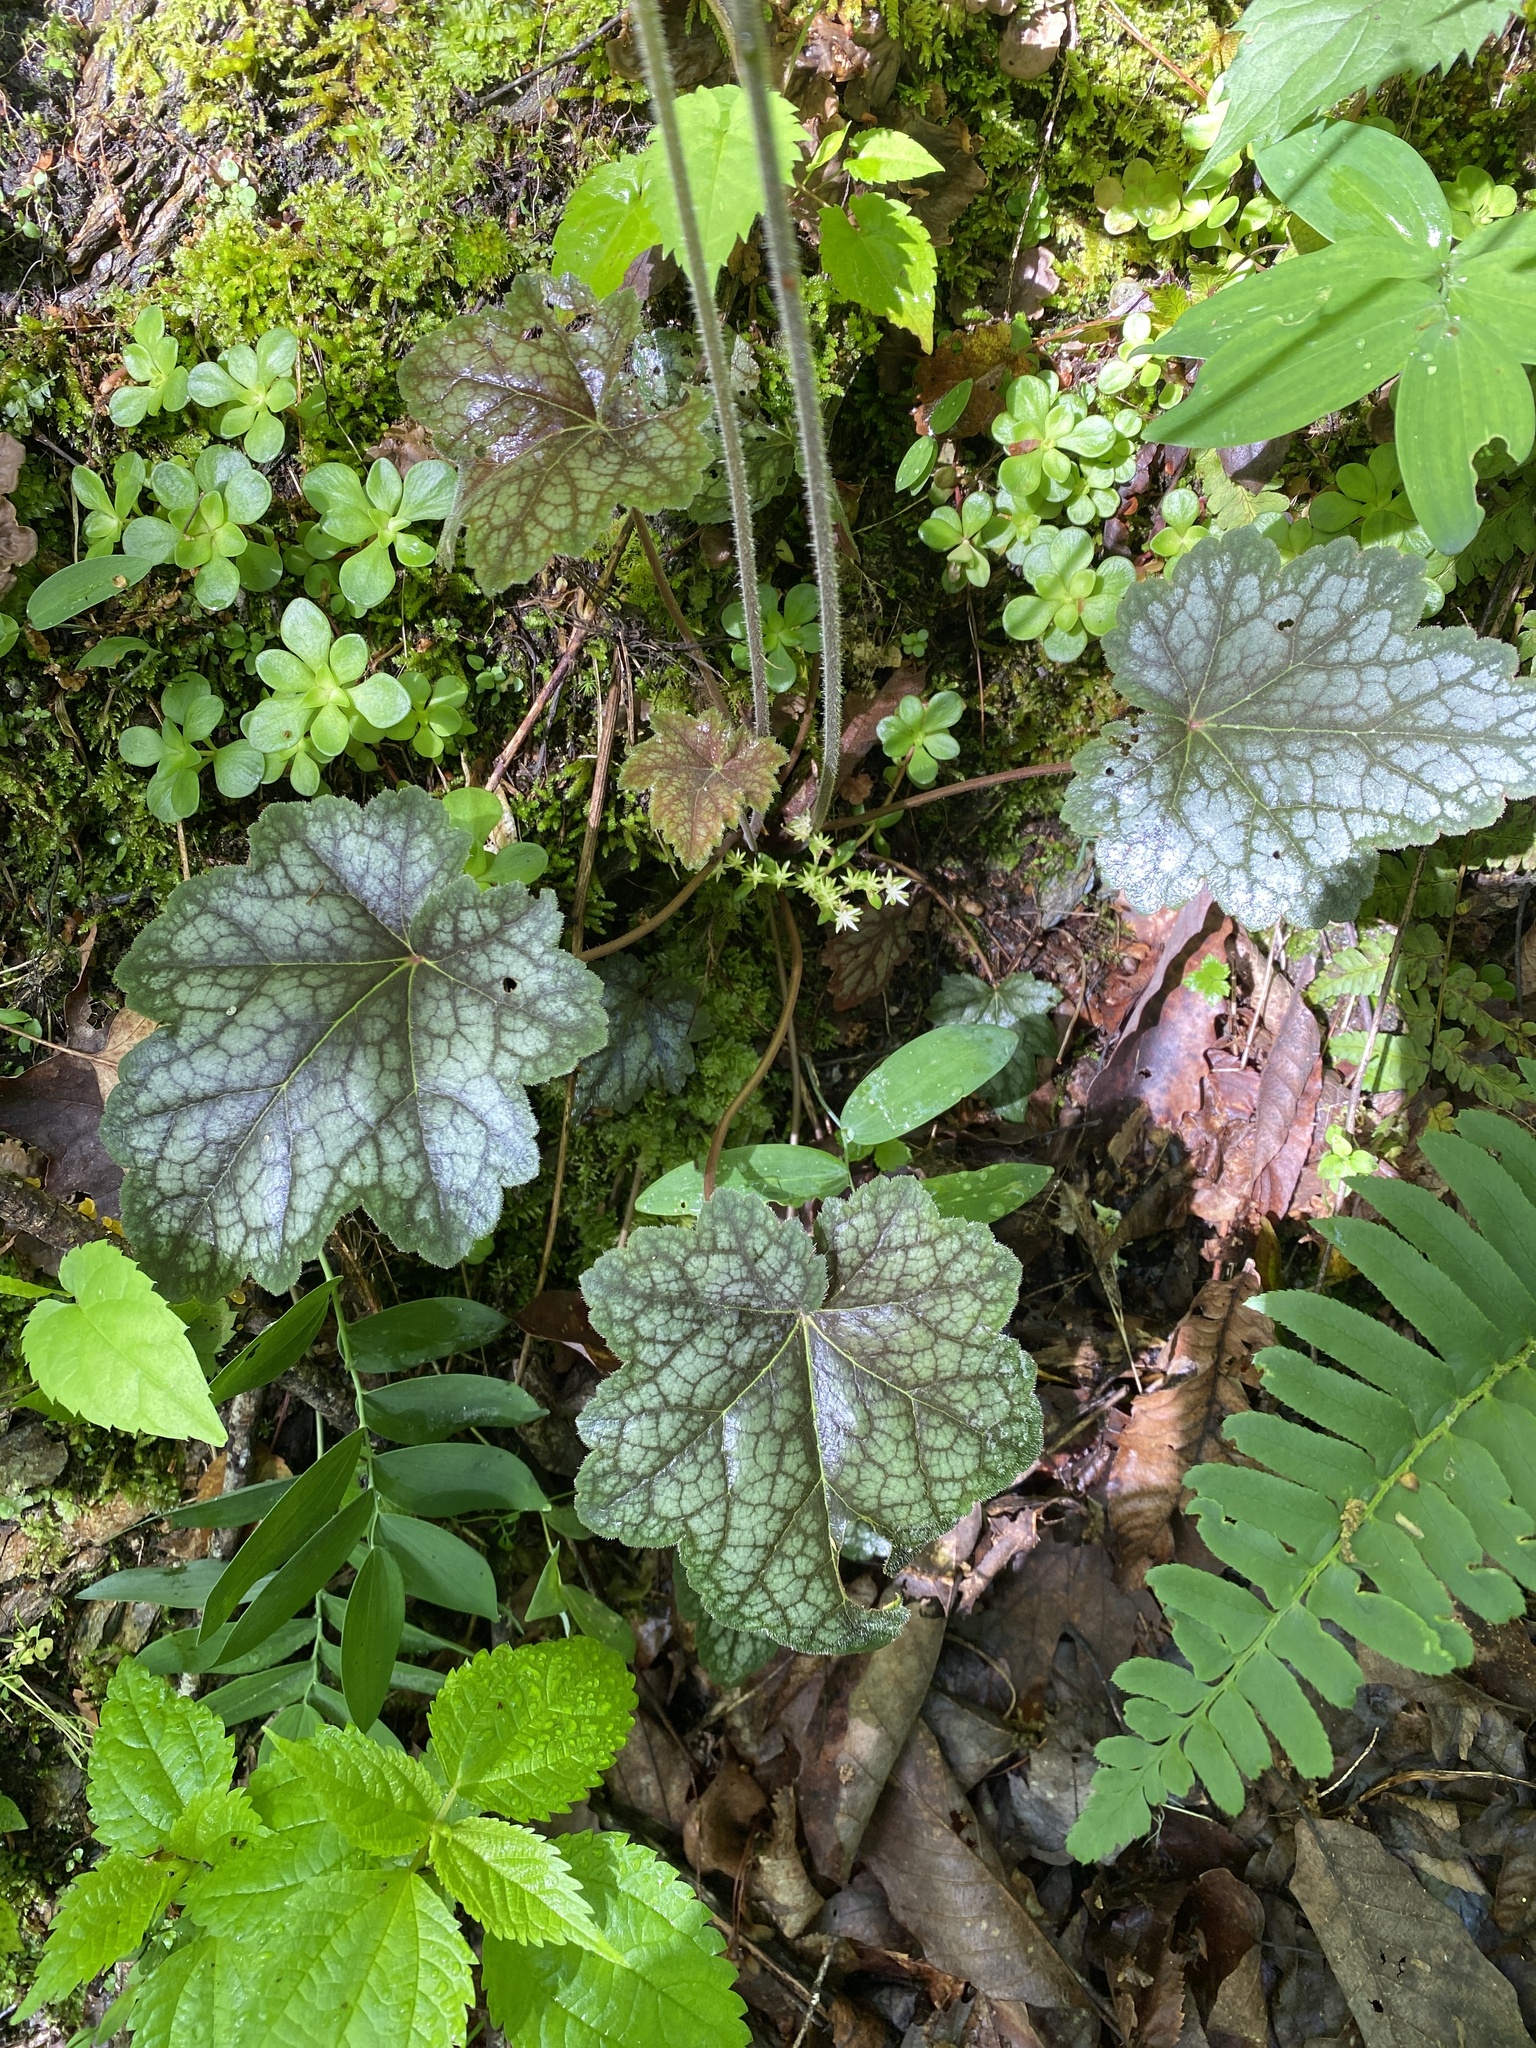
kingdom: Plantae
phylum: Tracheophyta
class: Magnoliopsida
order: Saxifragales
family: Saxifragaceae
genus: Heuchera
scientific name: Heuchera americana
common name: Alumroot
